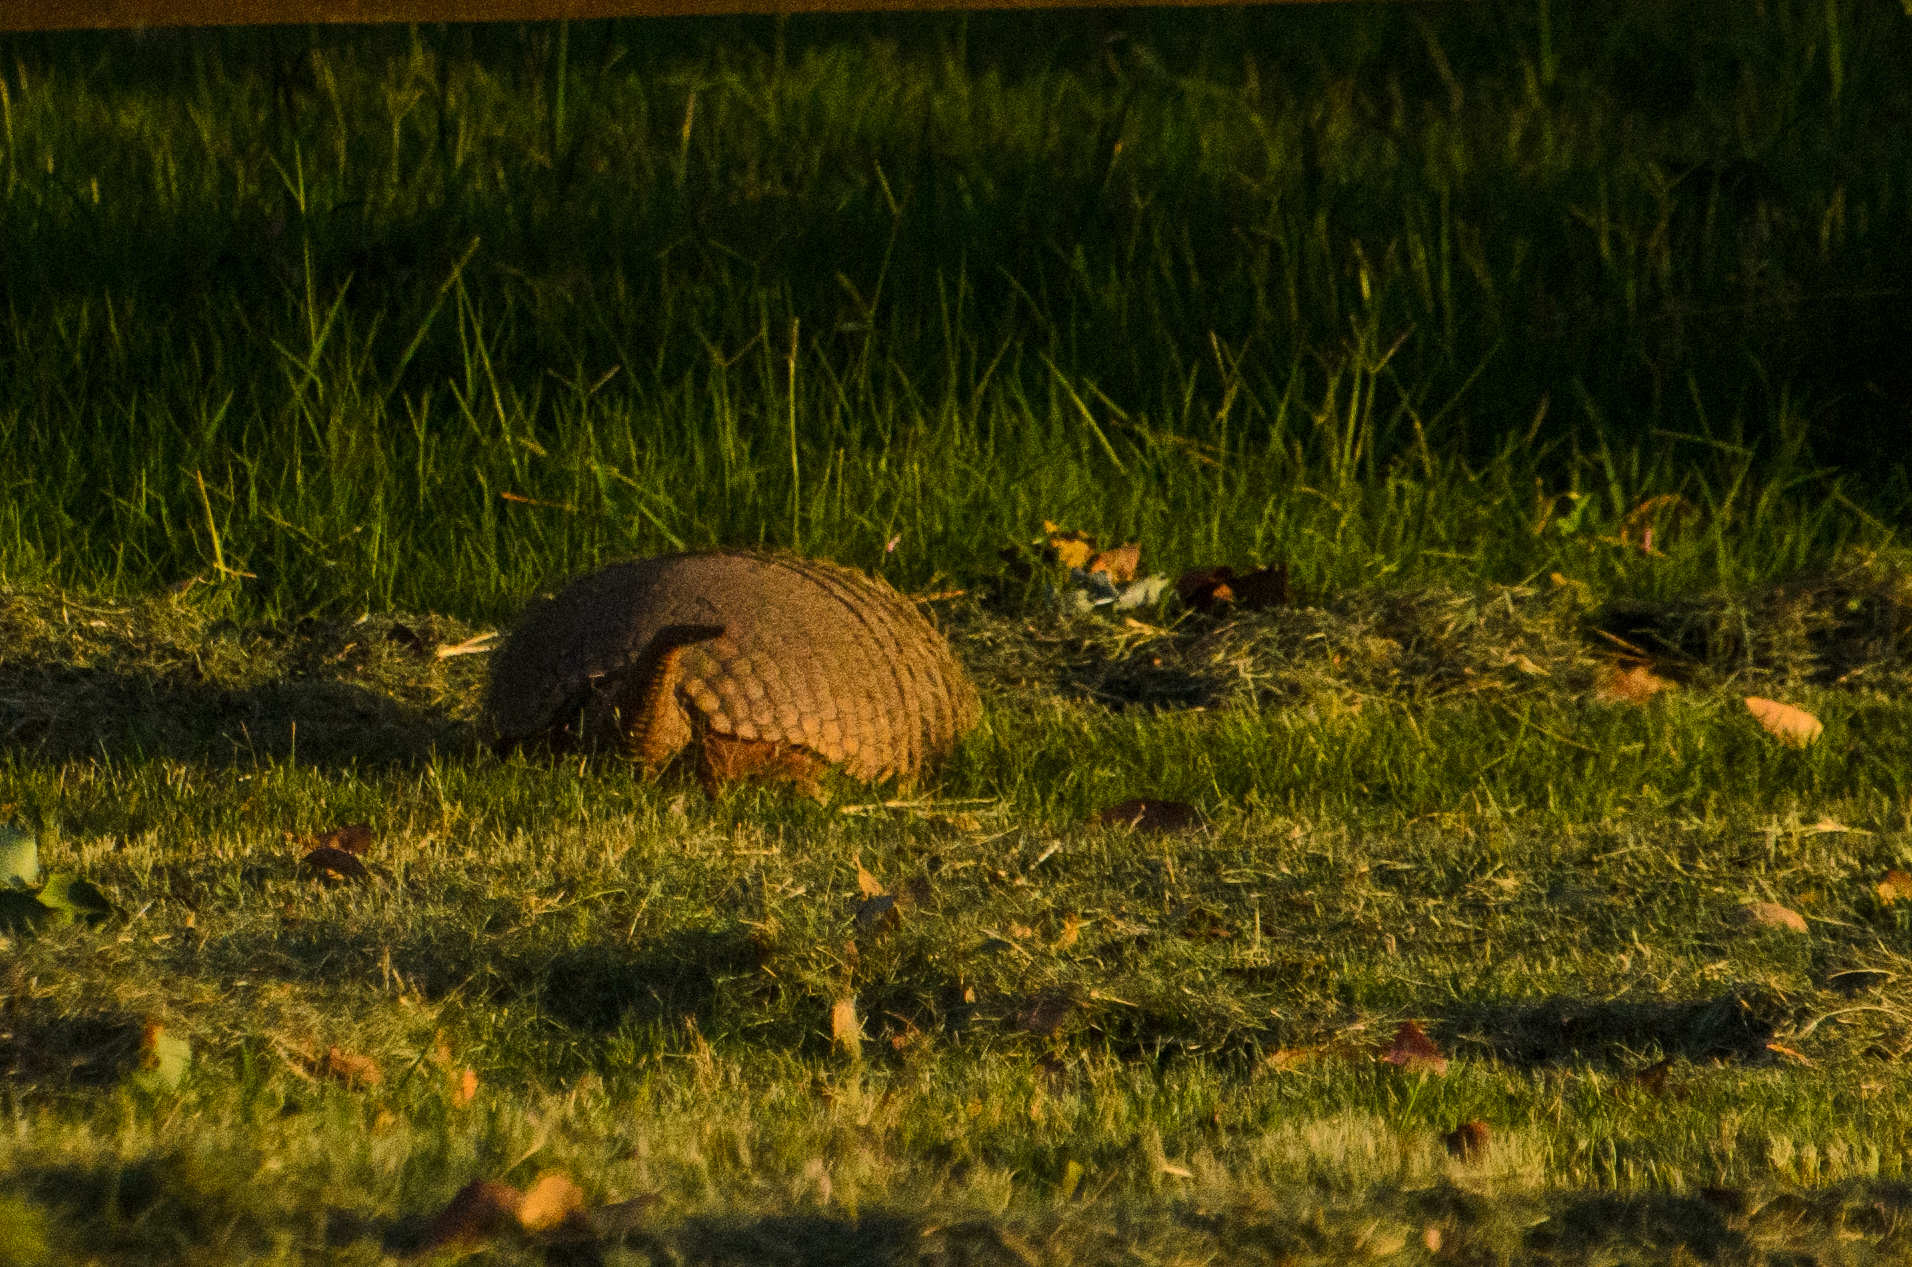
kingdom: Animalia
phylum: Chordata
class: Mammalia
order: Cingulata
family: Dasypodidae
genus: Euphractus
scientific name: Euphractus sexcinctus
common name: Six-banded armadillo
